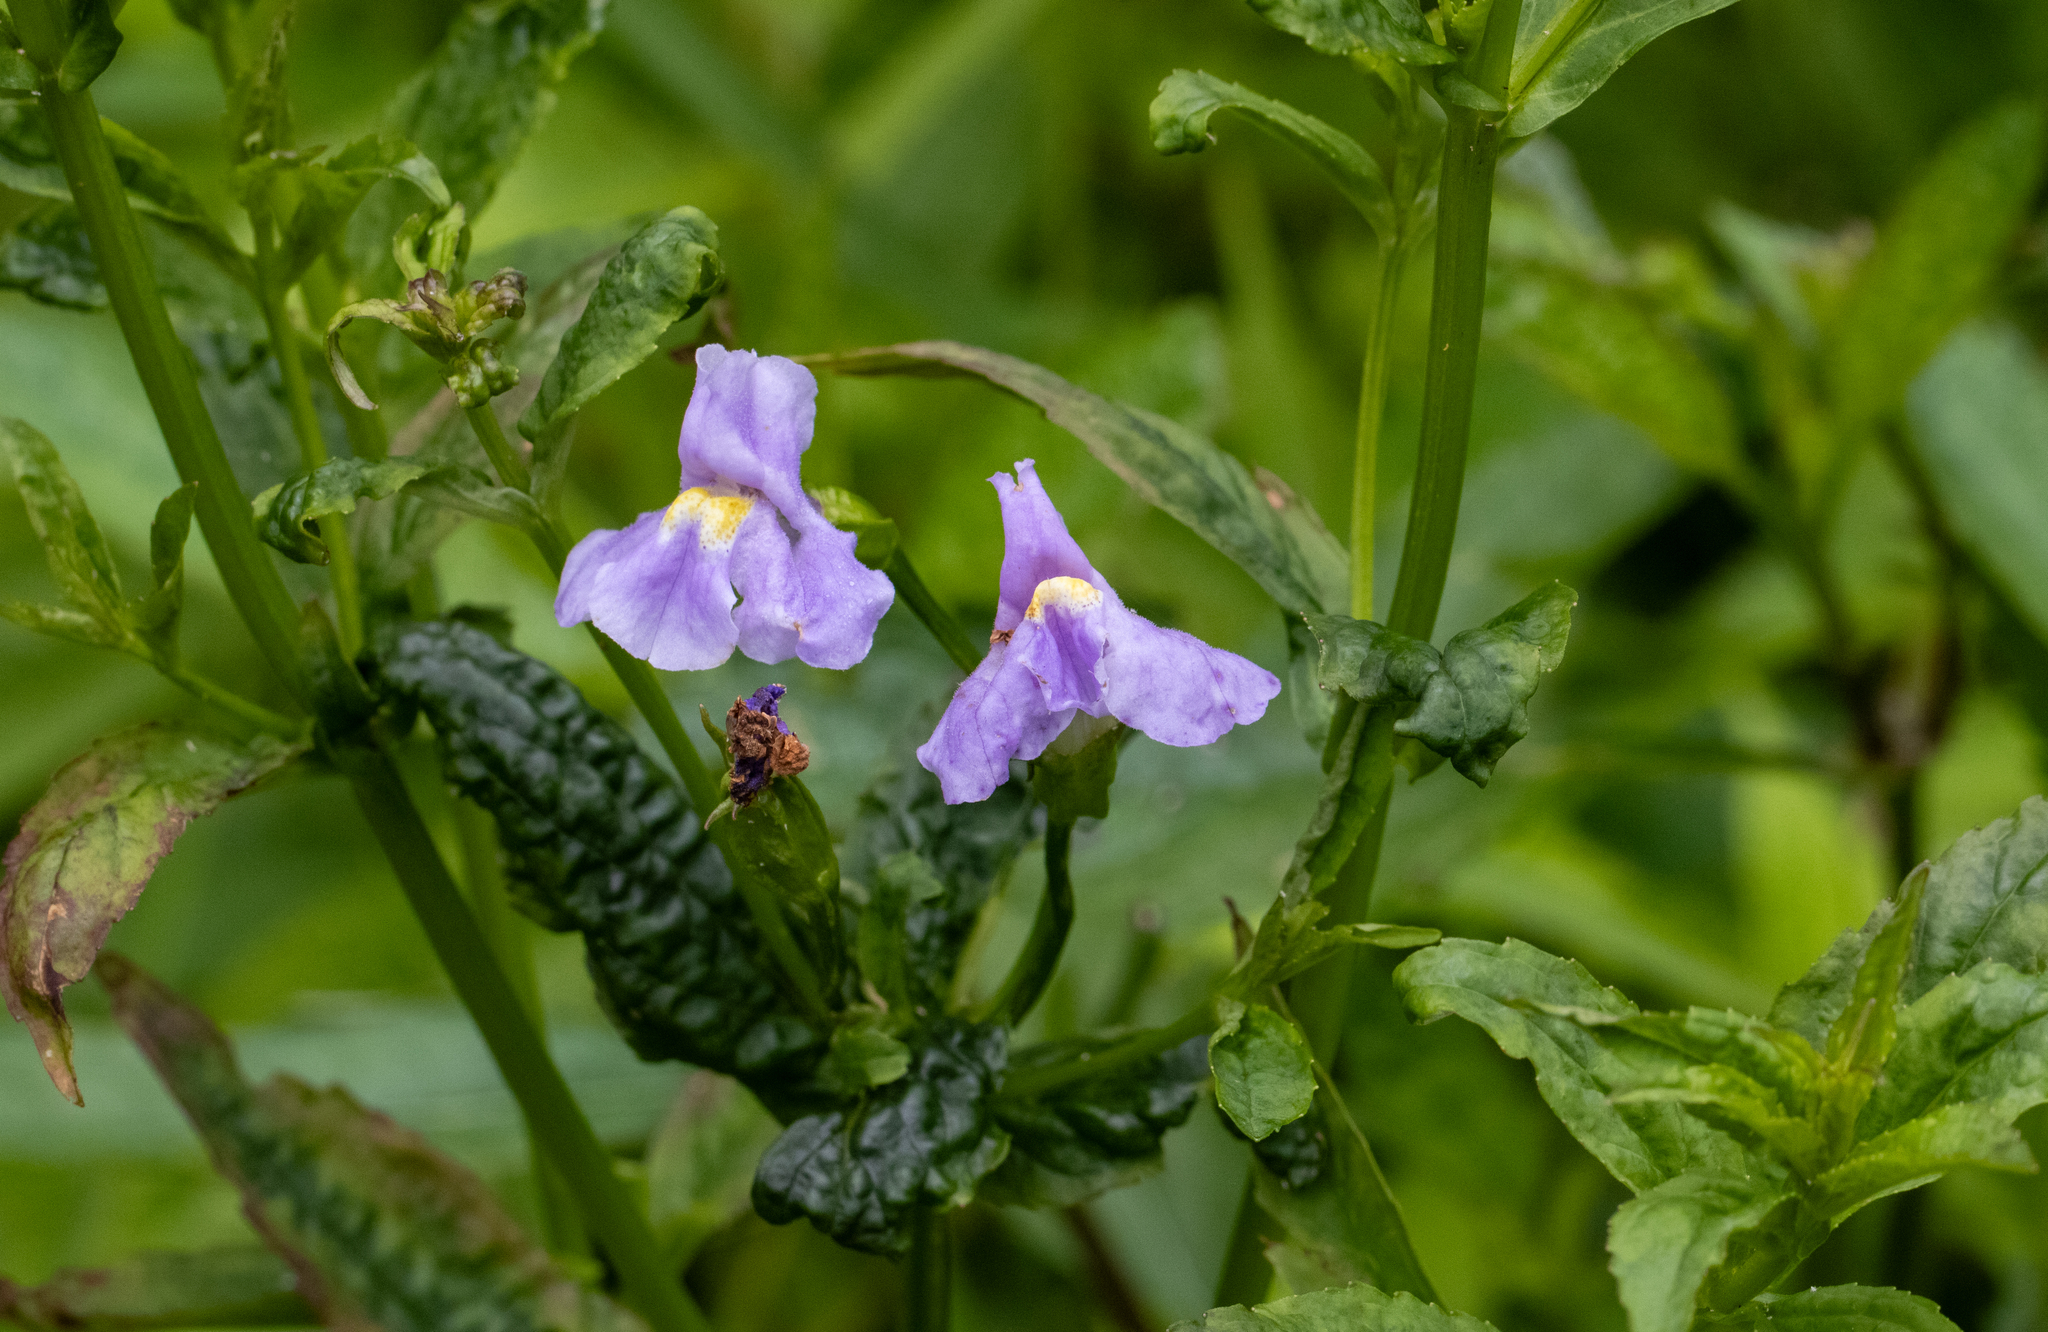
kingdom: Plantae
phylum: Tracheophyta
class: Magnoliopsida
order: Lamiales
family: Phrymaceae
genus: Mimulus
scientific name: Mimulus ringens
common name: Allegheny monkeyflower
